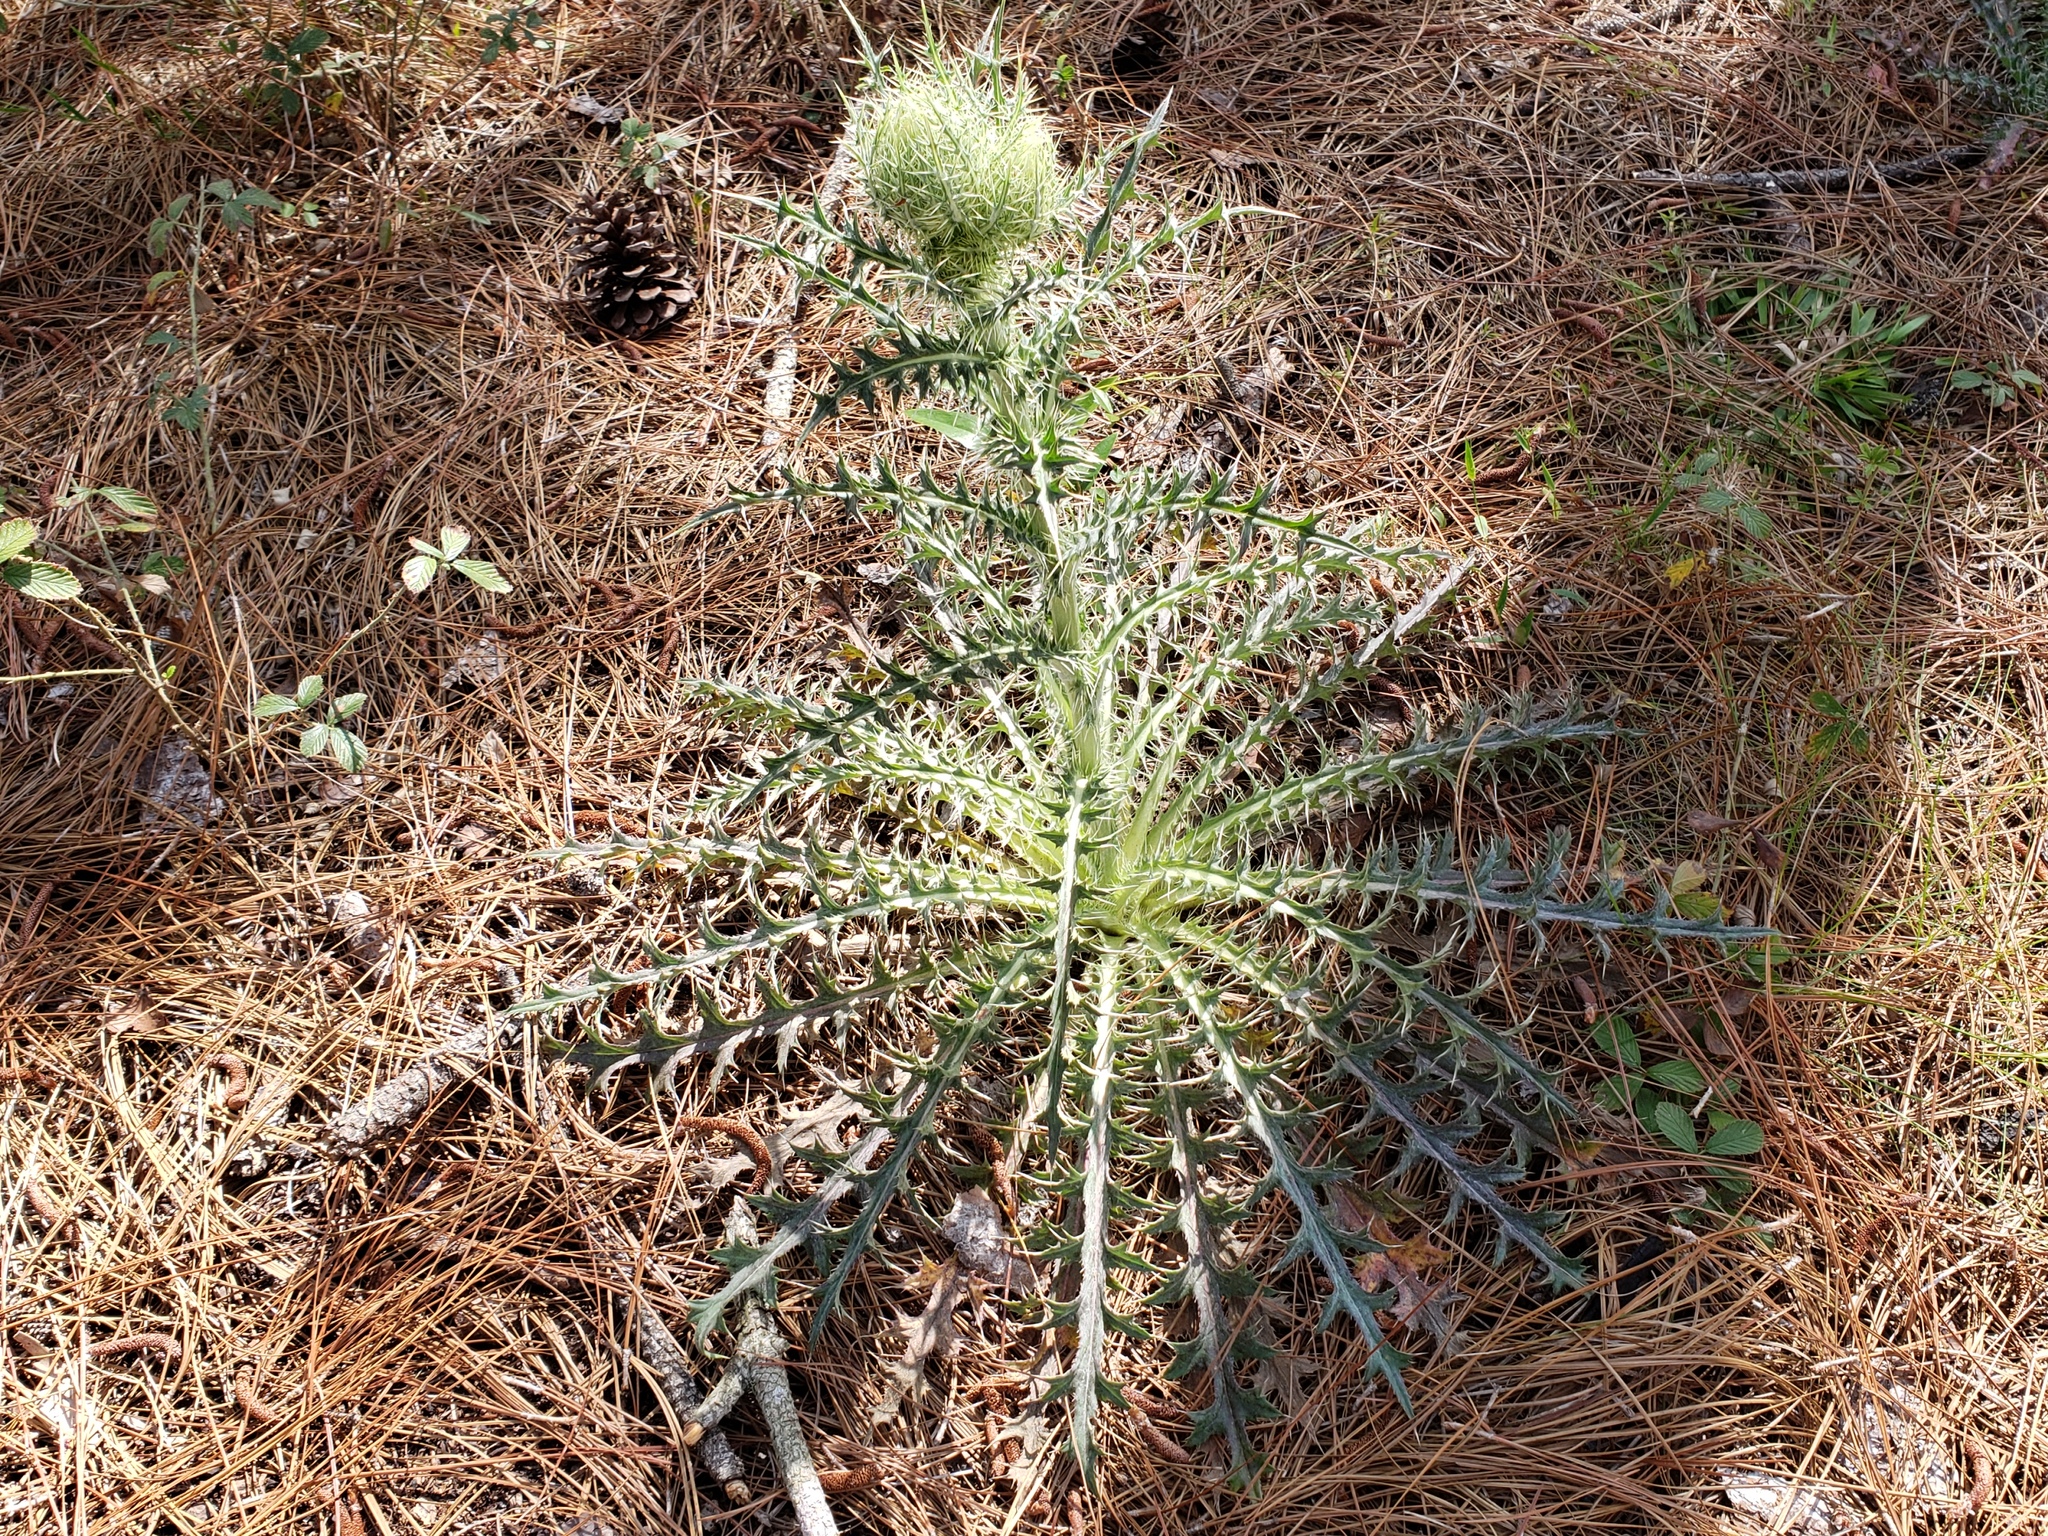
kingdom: Plantae
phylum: Tracheophyta
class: Magnoliopsida
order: Asterales
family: Asteraceae
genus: Cirsium
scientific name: Cirsium horridulum
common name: Bristly thistle
